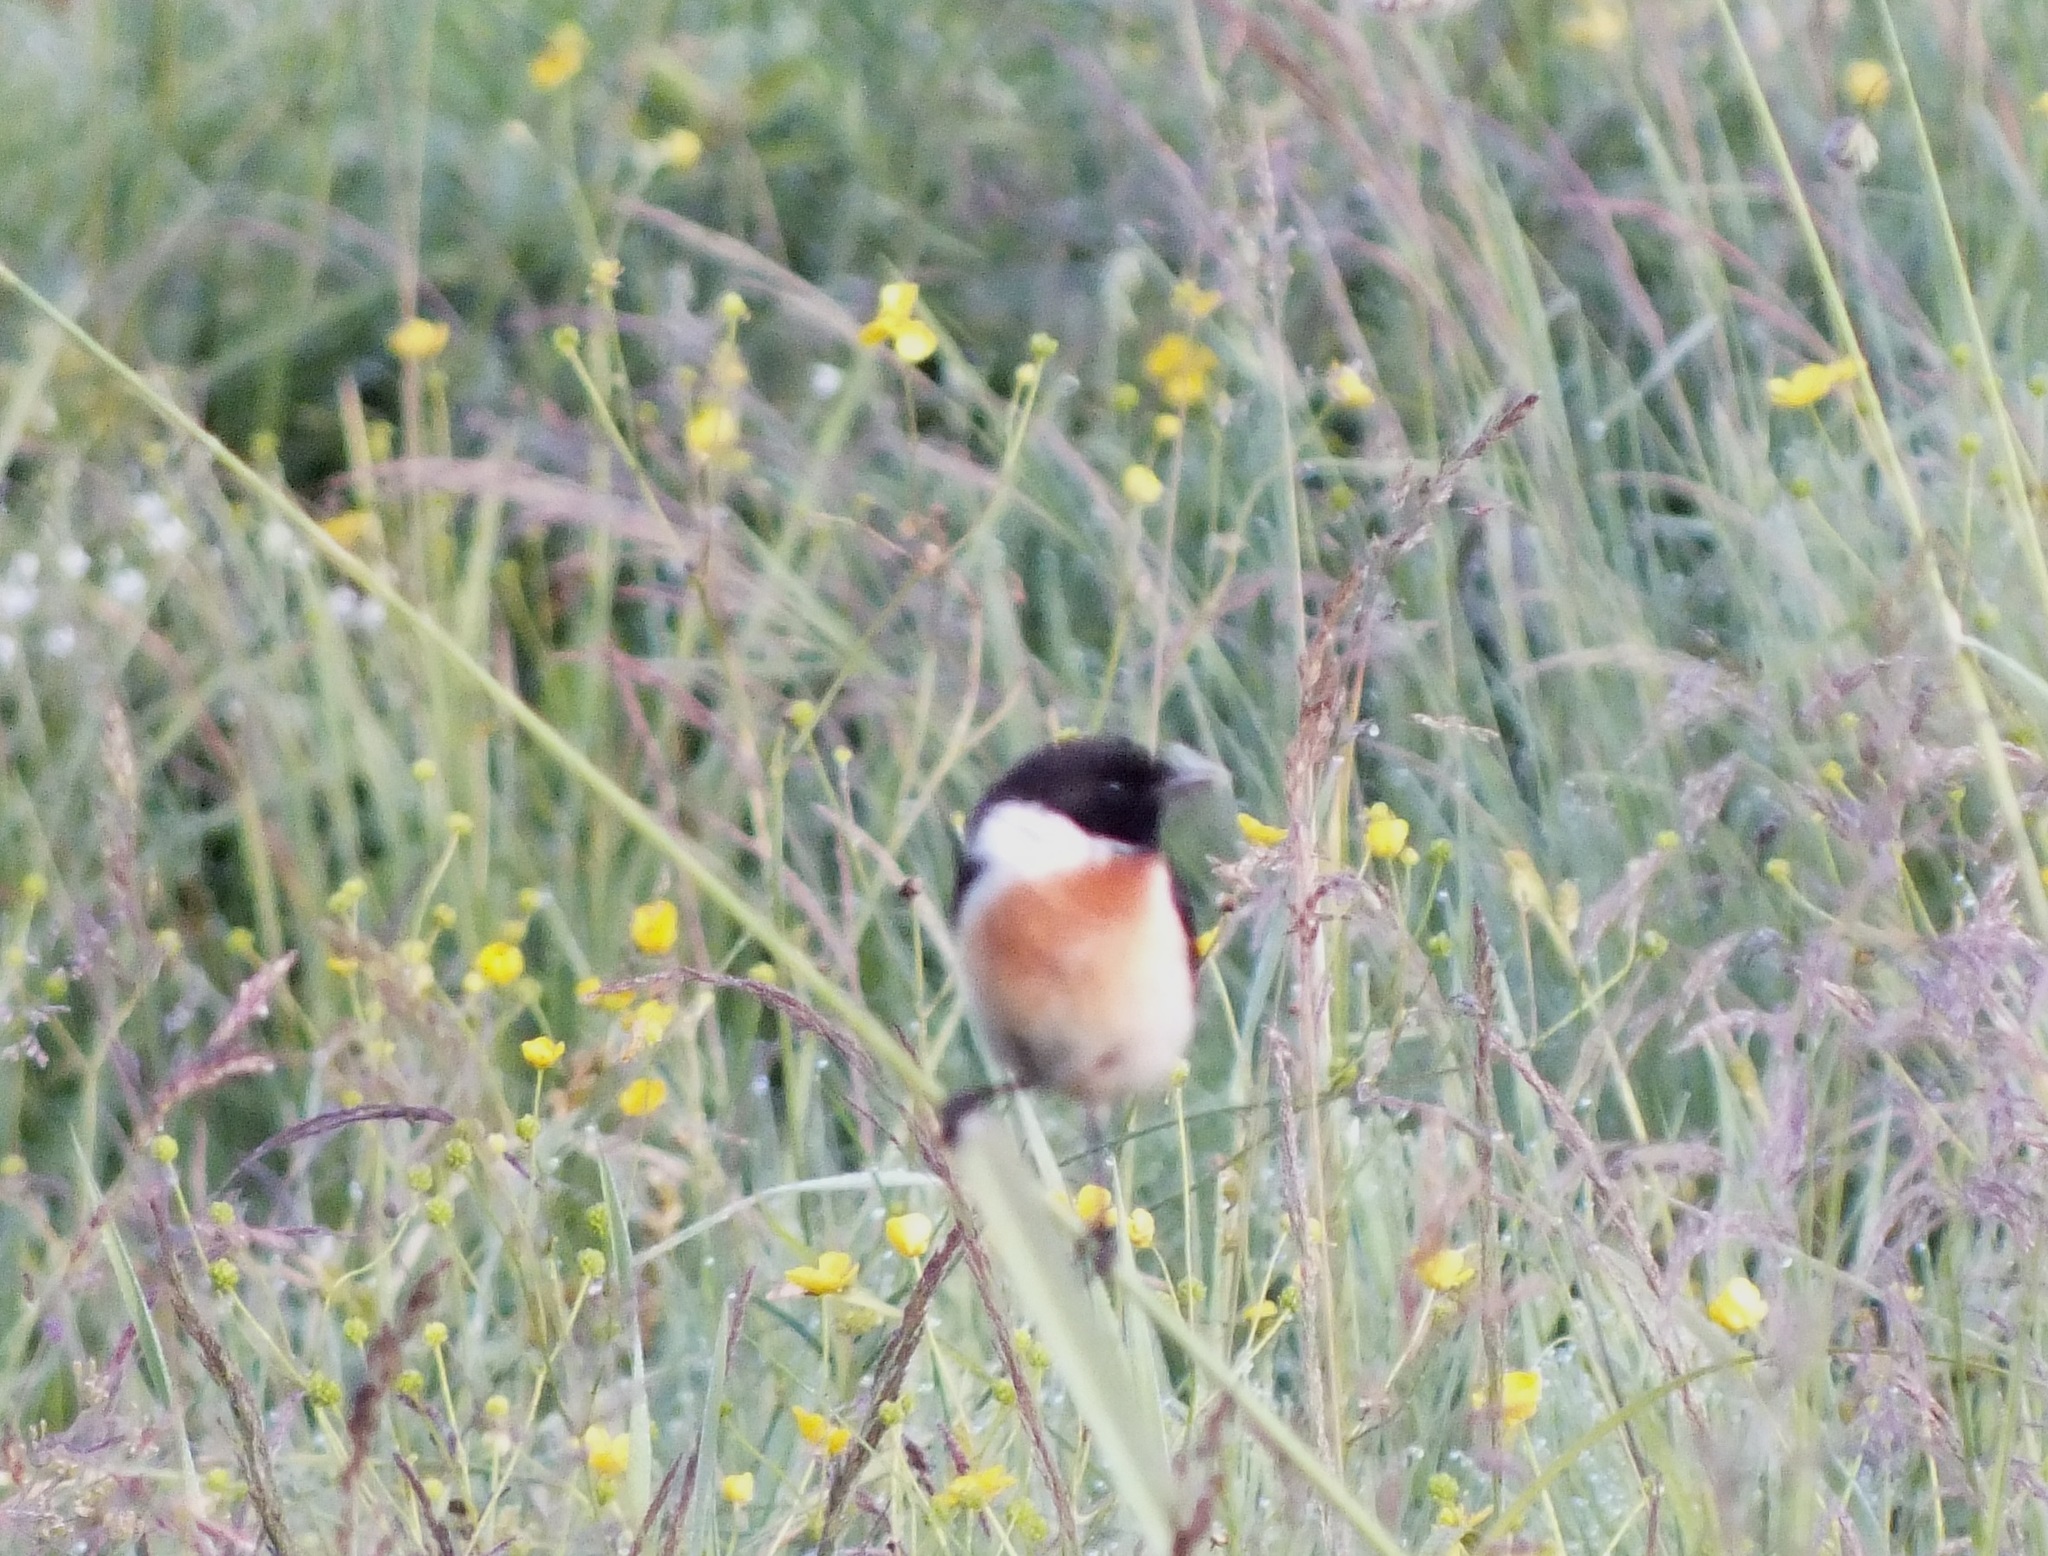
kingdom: Animalia
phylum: Chordata
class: Aves
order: Passeriformes
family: Muscicapidae
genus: Saxicola
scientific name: Saxicola maurus
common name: Siberian stonechat
